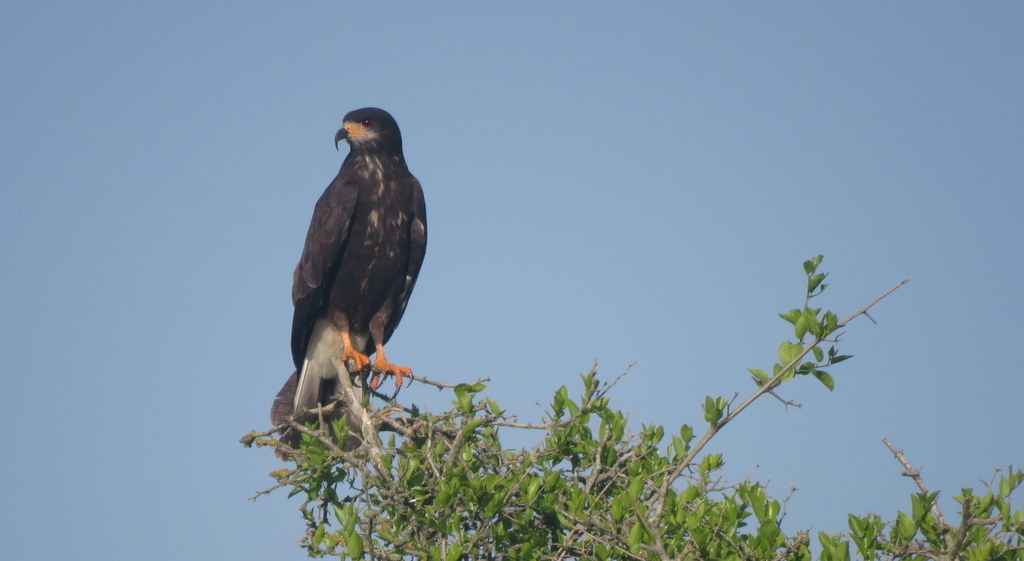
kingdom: Animalia
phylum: Chordata
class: Aves
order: Accipitriformes
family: Accipitridae
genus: Rostrhamus
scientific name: Rostrhamus sociabilis
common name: Snail kite
